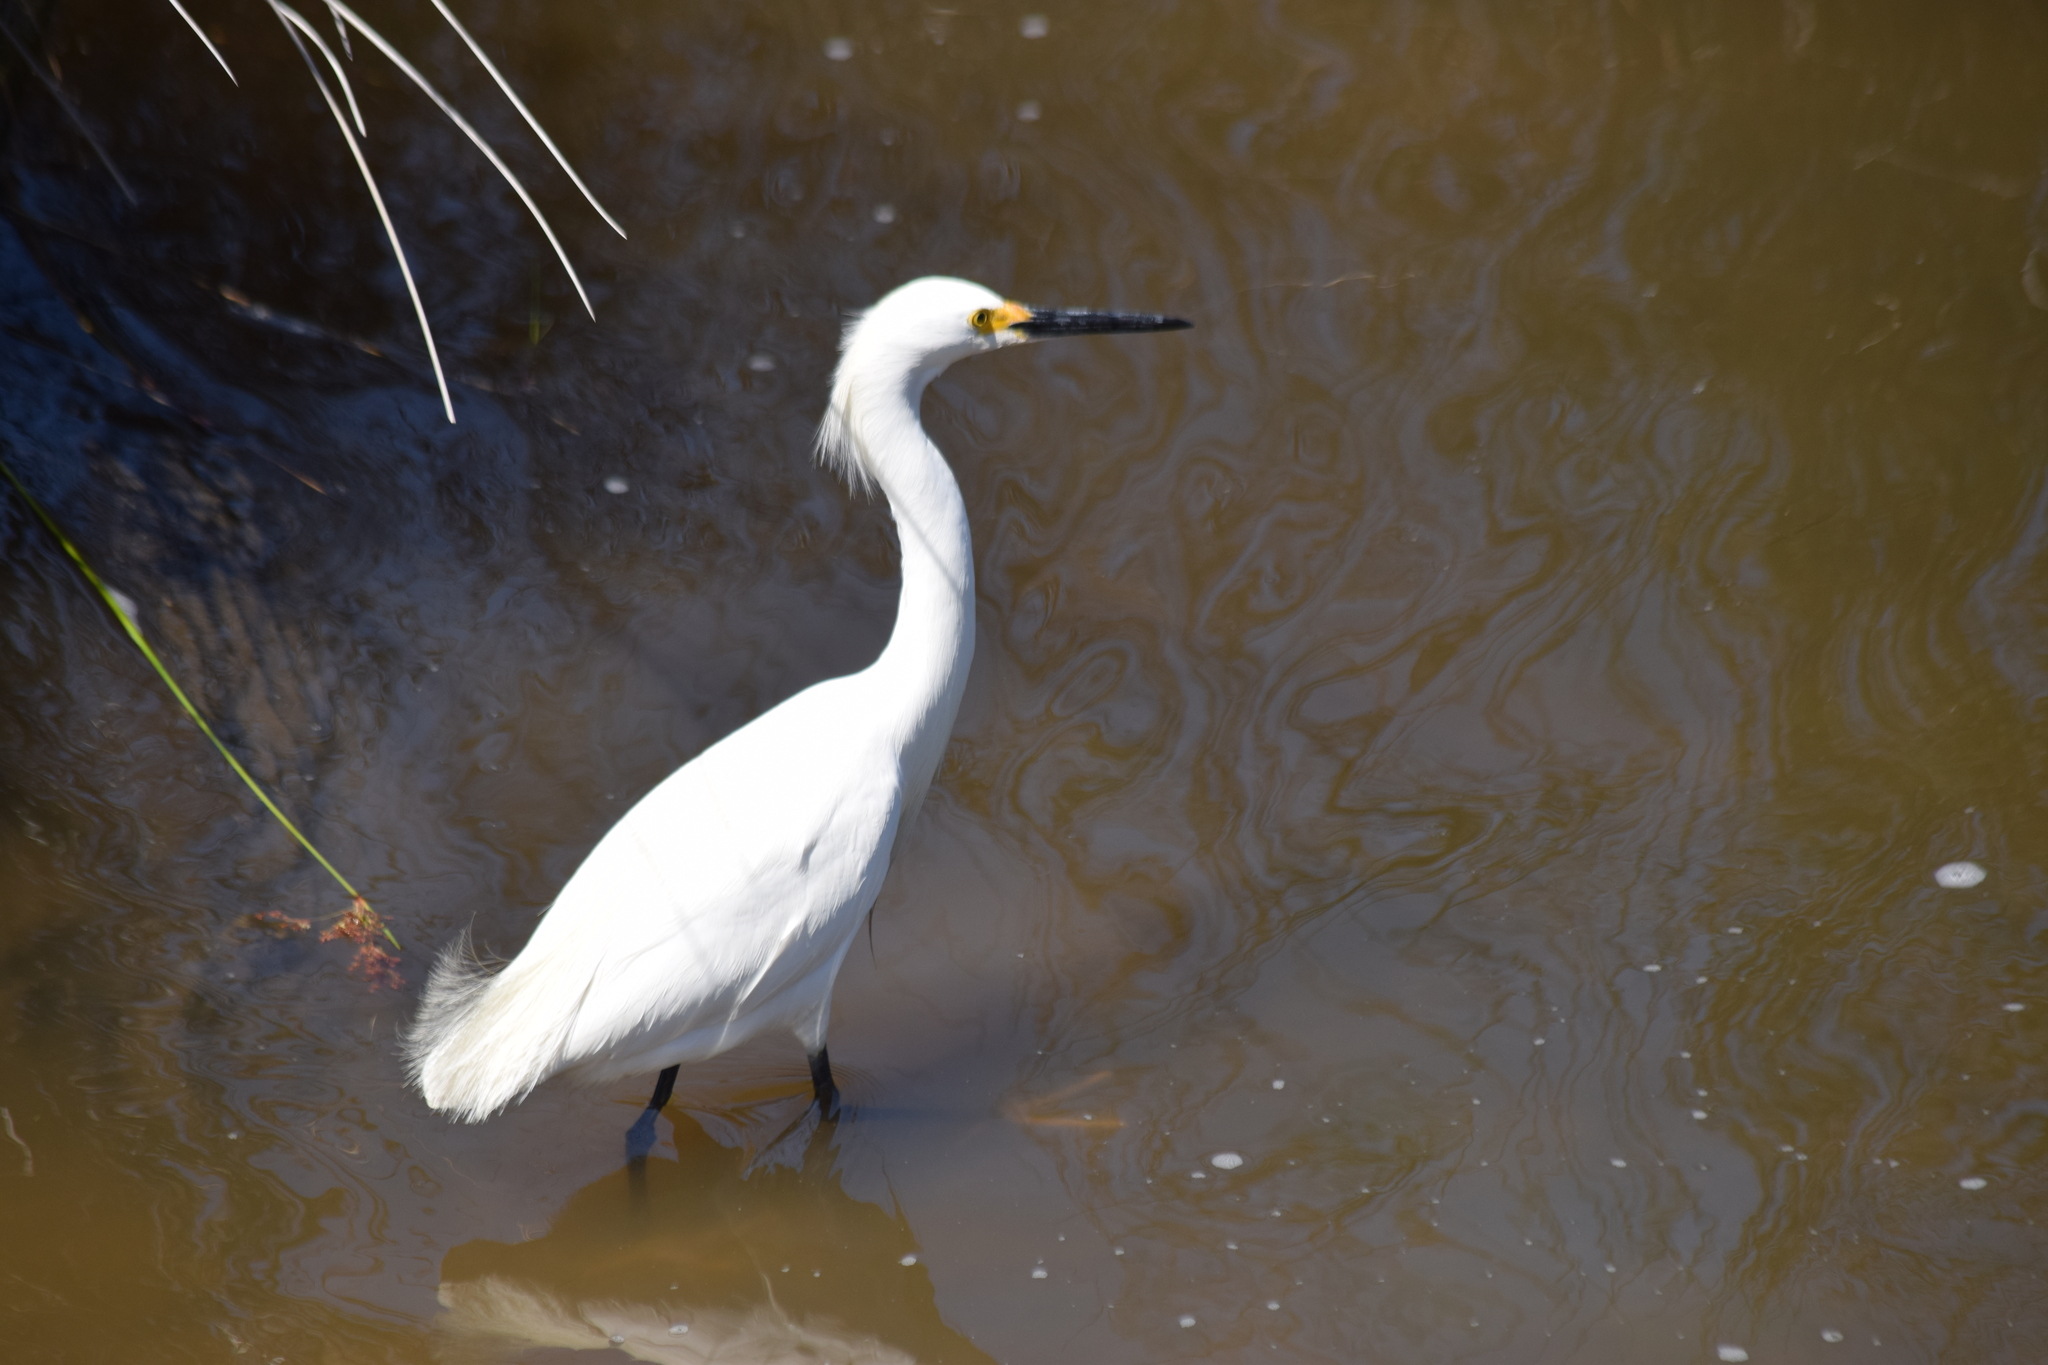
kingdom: Animalia
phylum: Chordata
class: Aves
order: Pelecaniformes
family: Ardeidae
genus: Egretta
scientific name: Egretta thula
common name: Snowy egret
